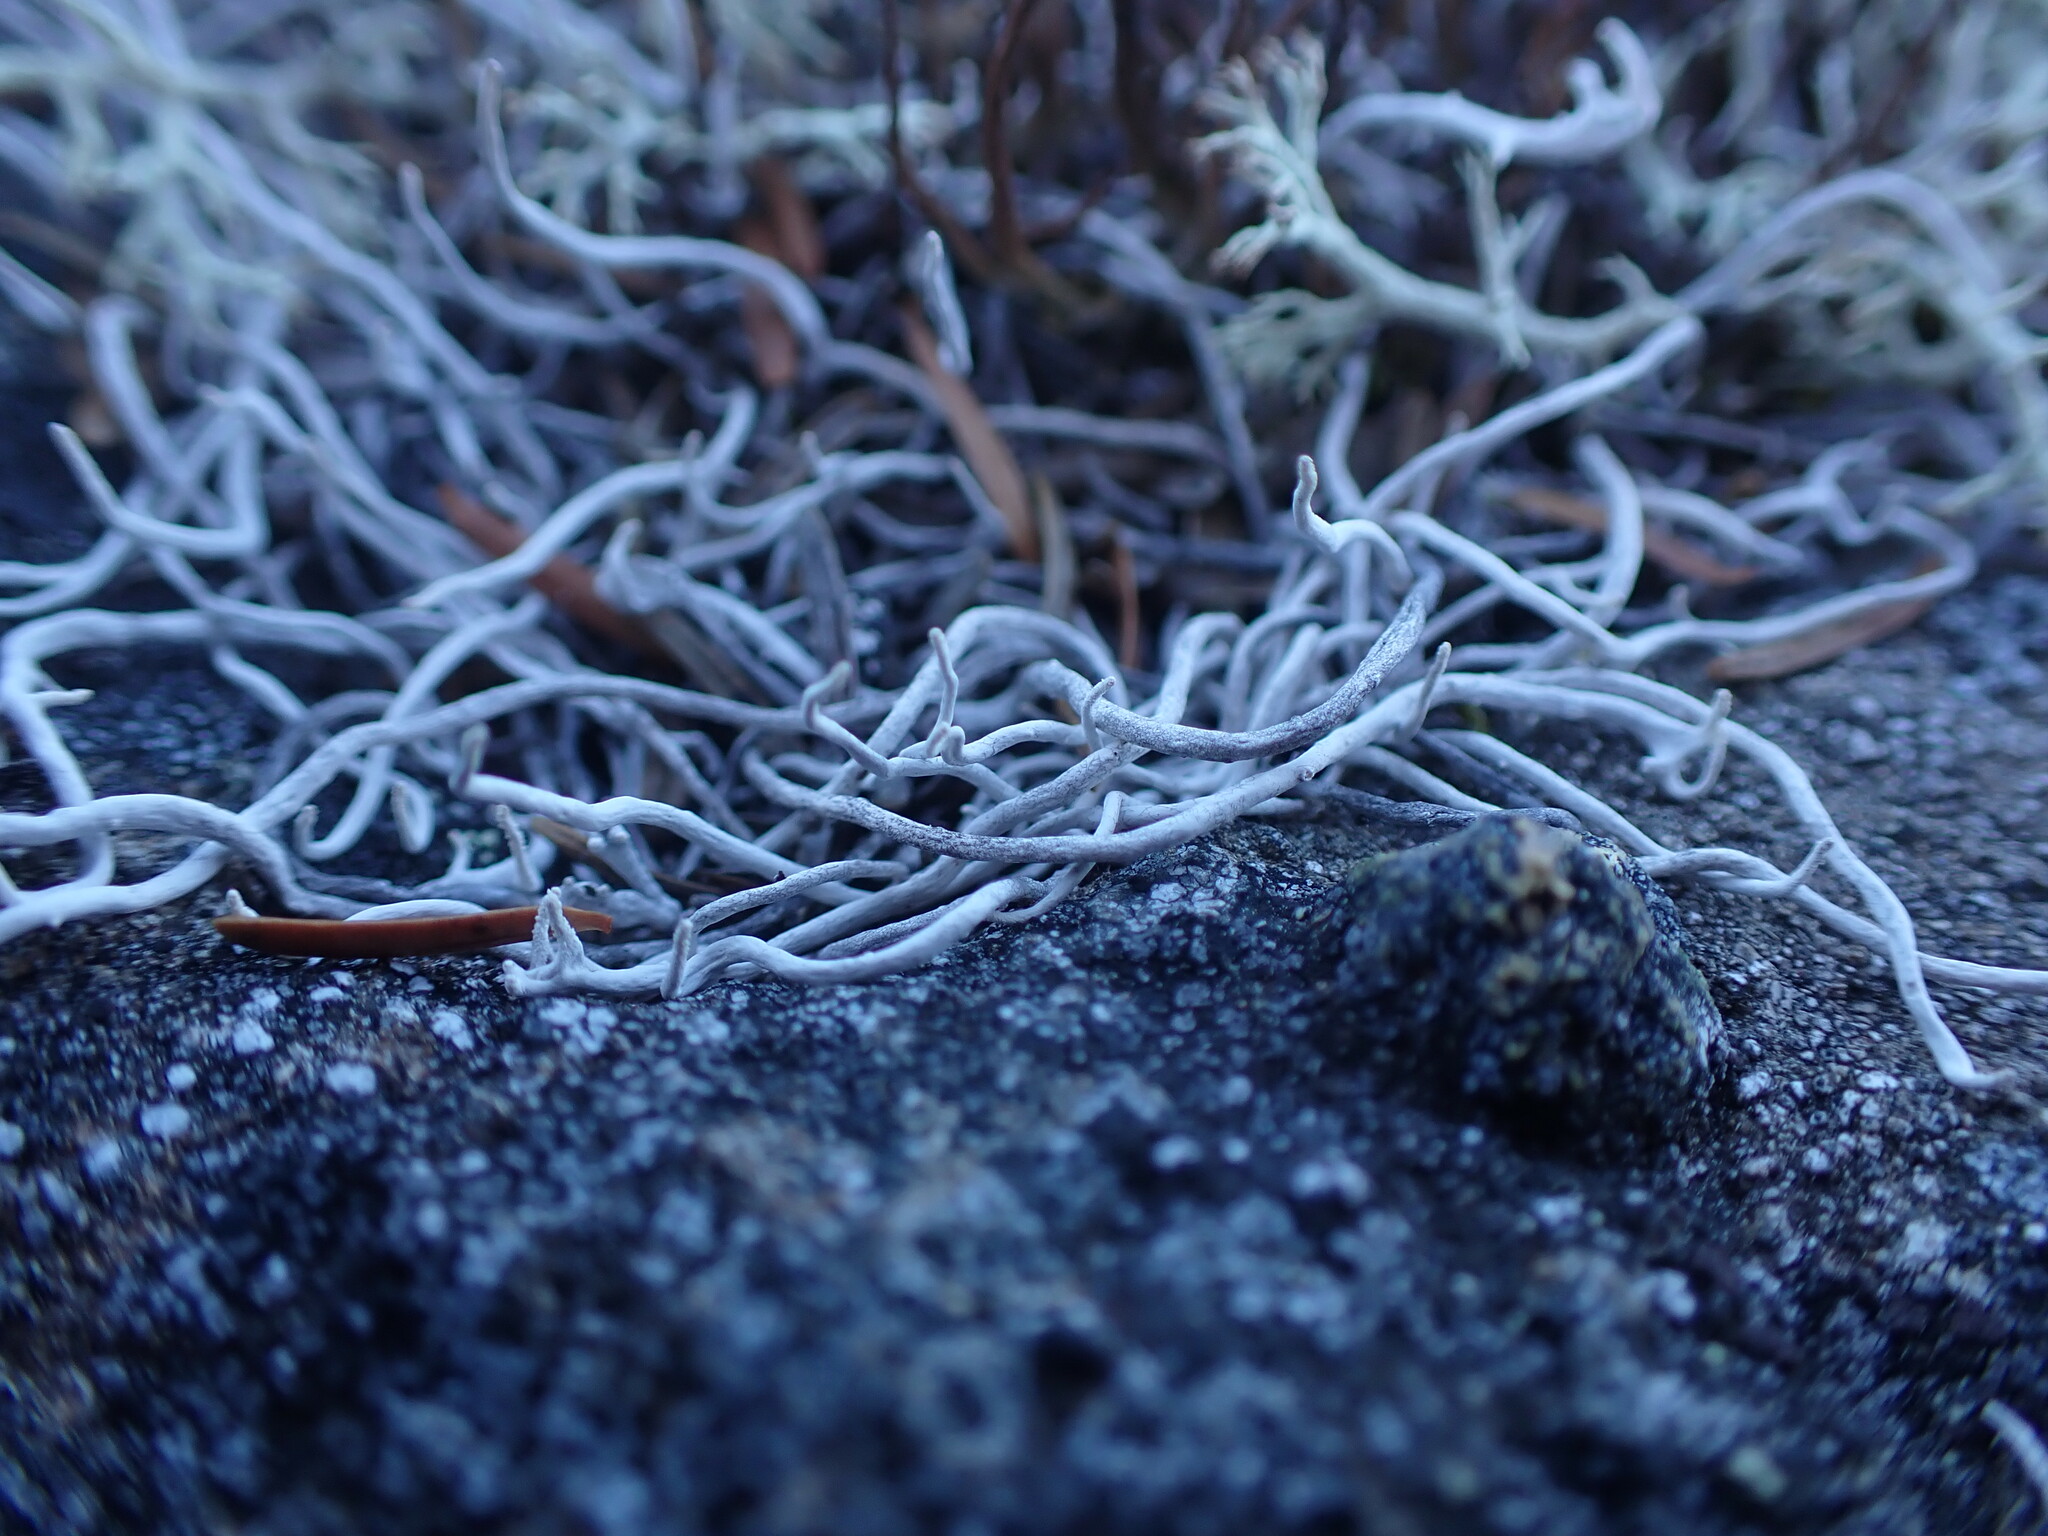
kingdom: Fungi
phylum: Ascomycota
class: Lecanoromycetes
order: Pertusariales
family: Icmadophilaceae
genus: Thamnolia
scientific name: Thamnolia vermicularis
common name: Whiteworm lichen
